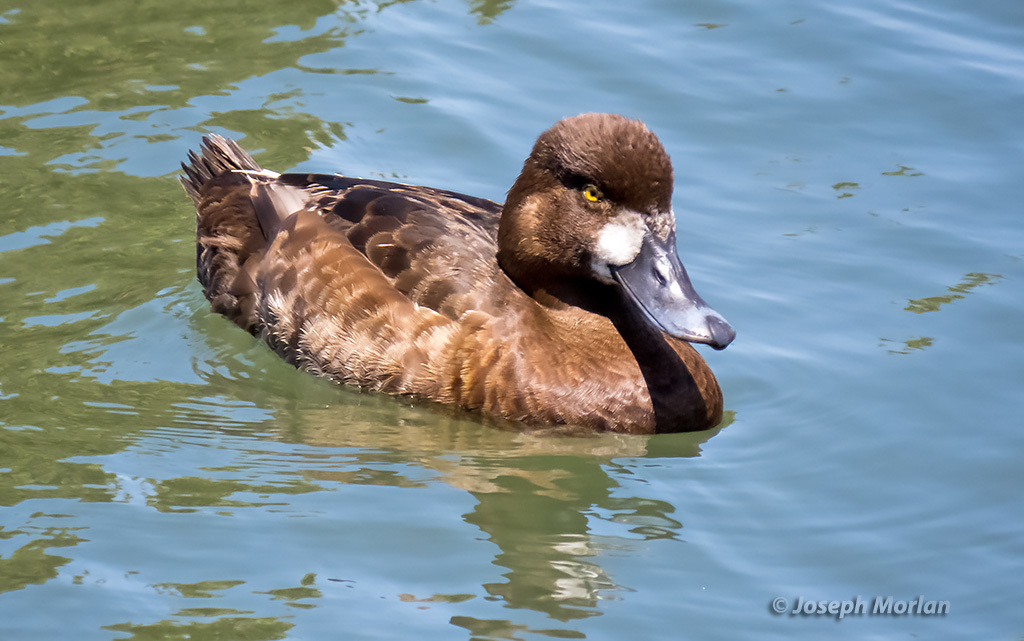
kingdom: Animalia
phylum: Chordata
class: Aves
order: Anseriformes
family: Anatidae
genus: Aythya
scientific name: Aythya affinis
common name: Lesser scaup
